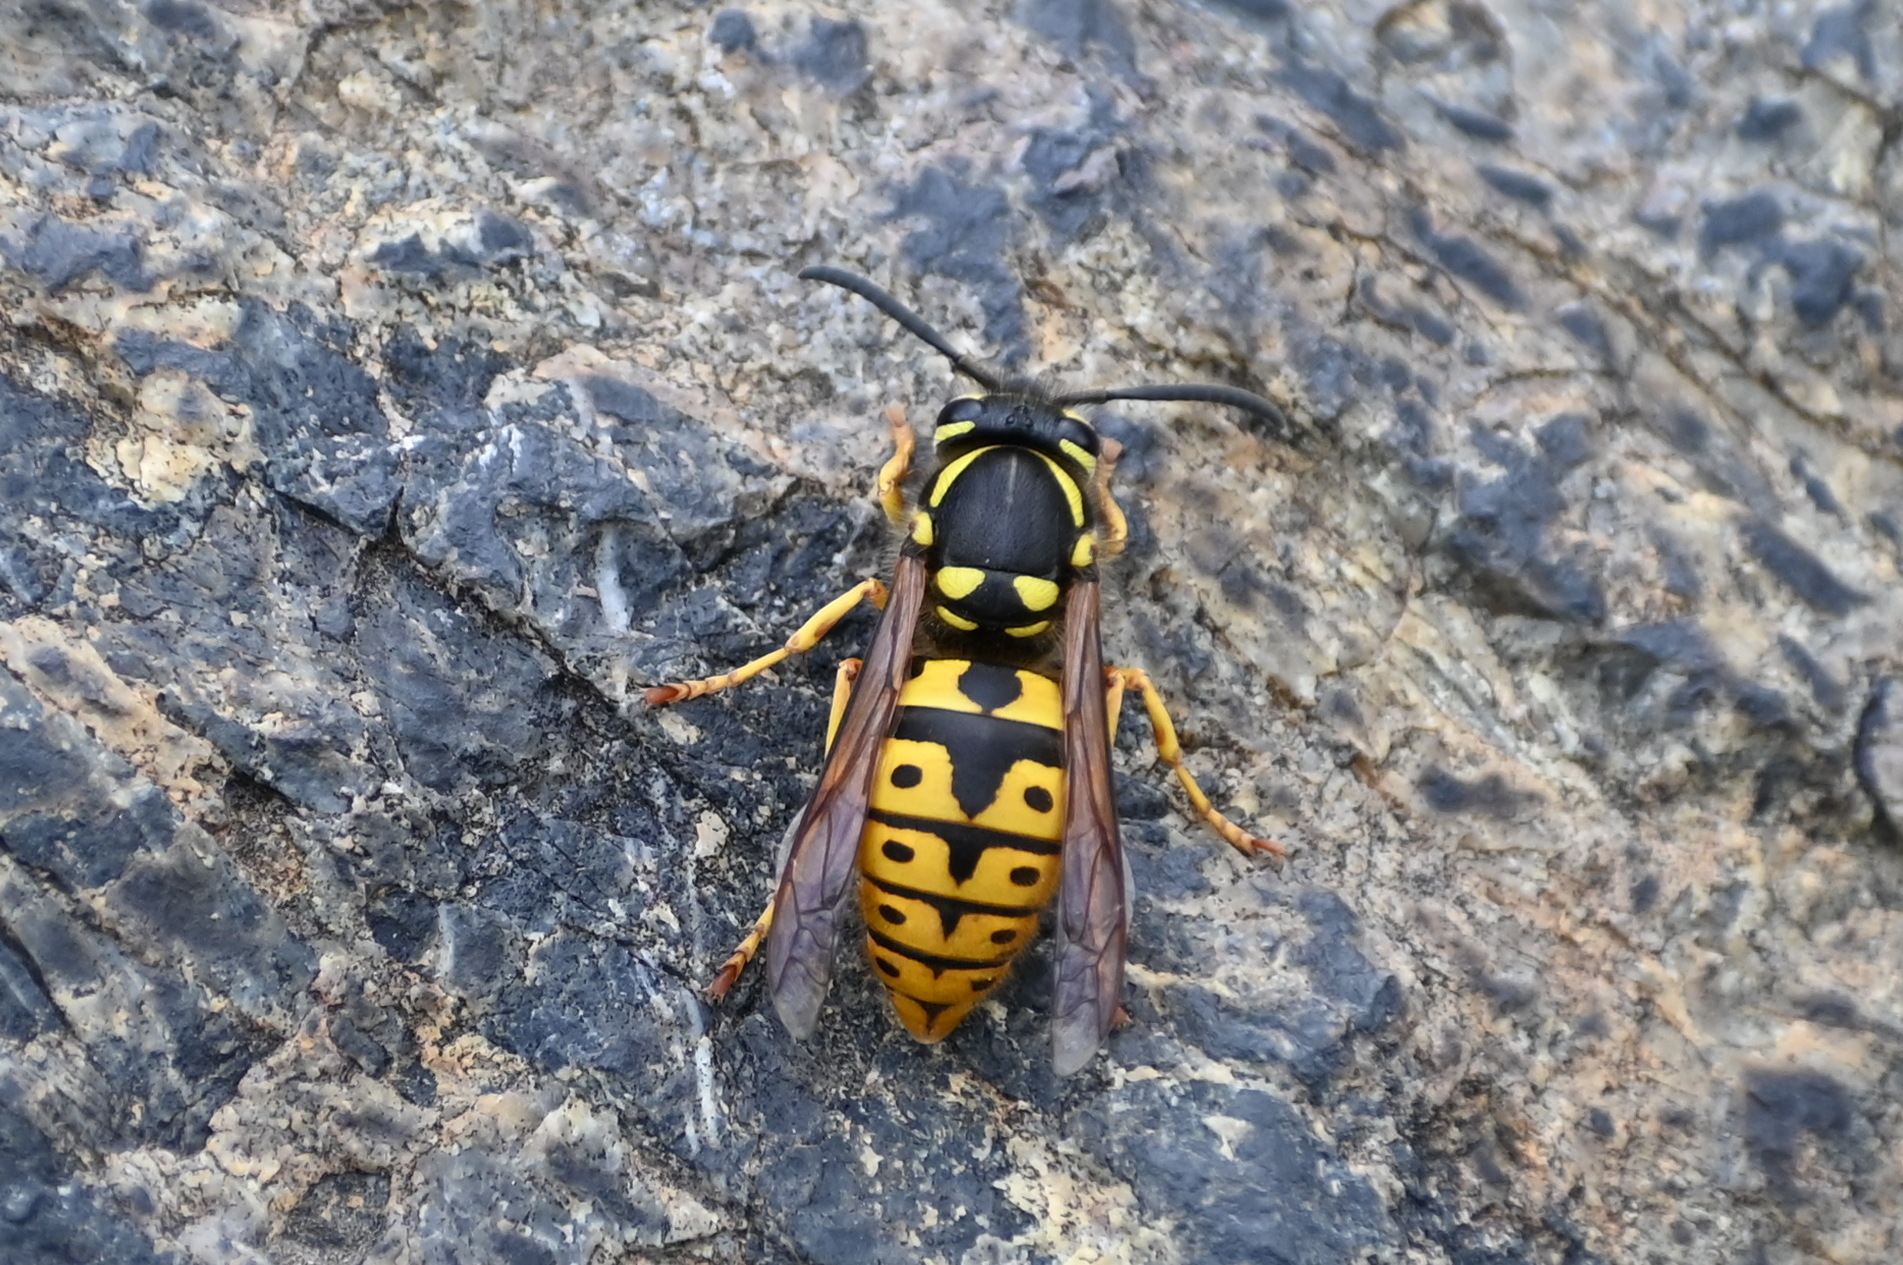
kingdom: Animalia
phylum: Arthropoda
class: Insecta
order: Hymenoptera
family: Vespidae
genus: Vespula
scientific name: Vespula germanica
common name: German wasp
